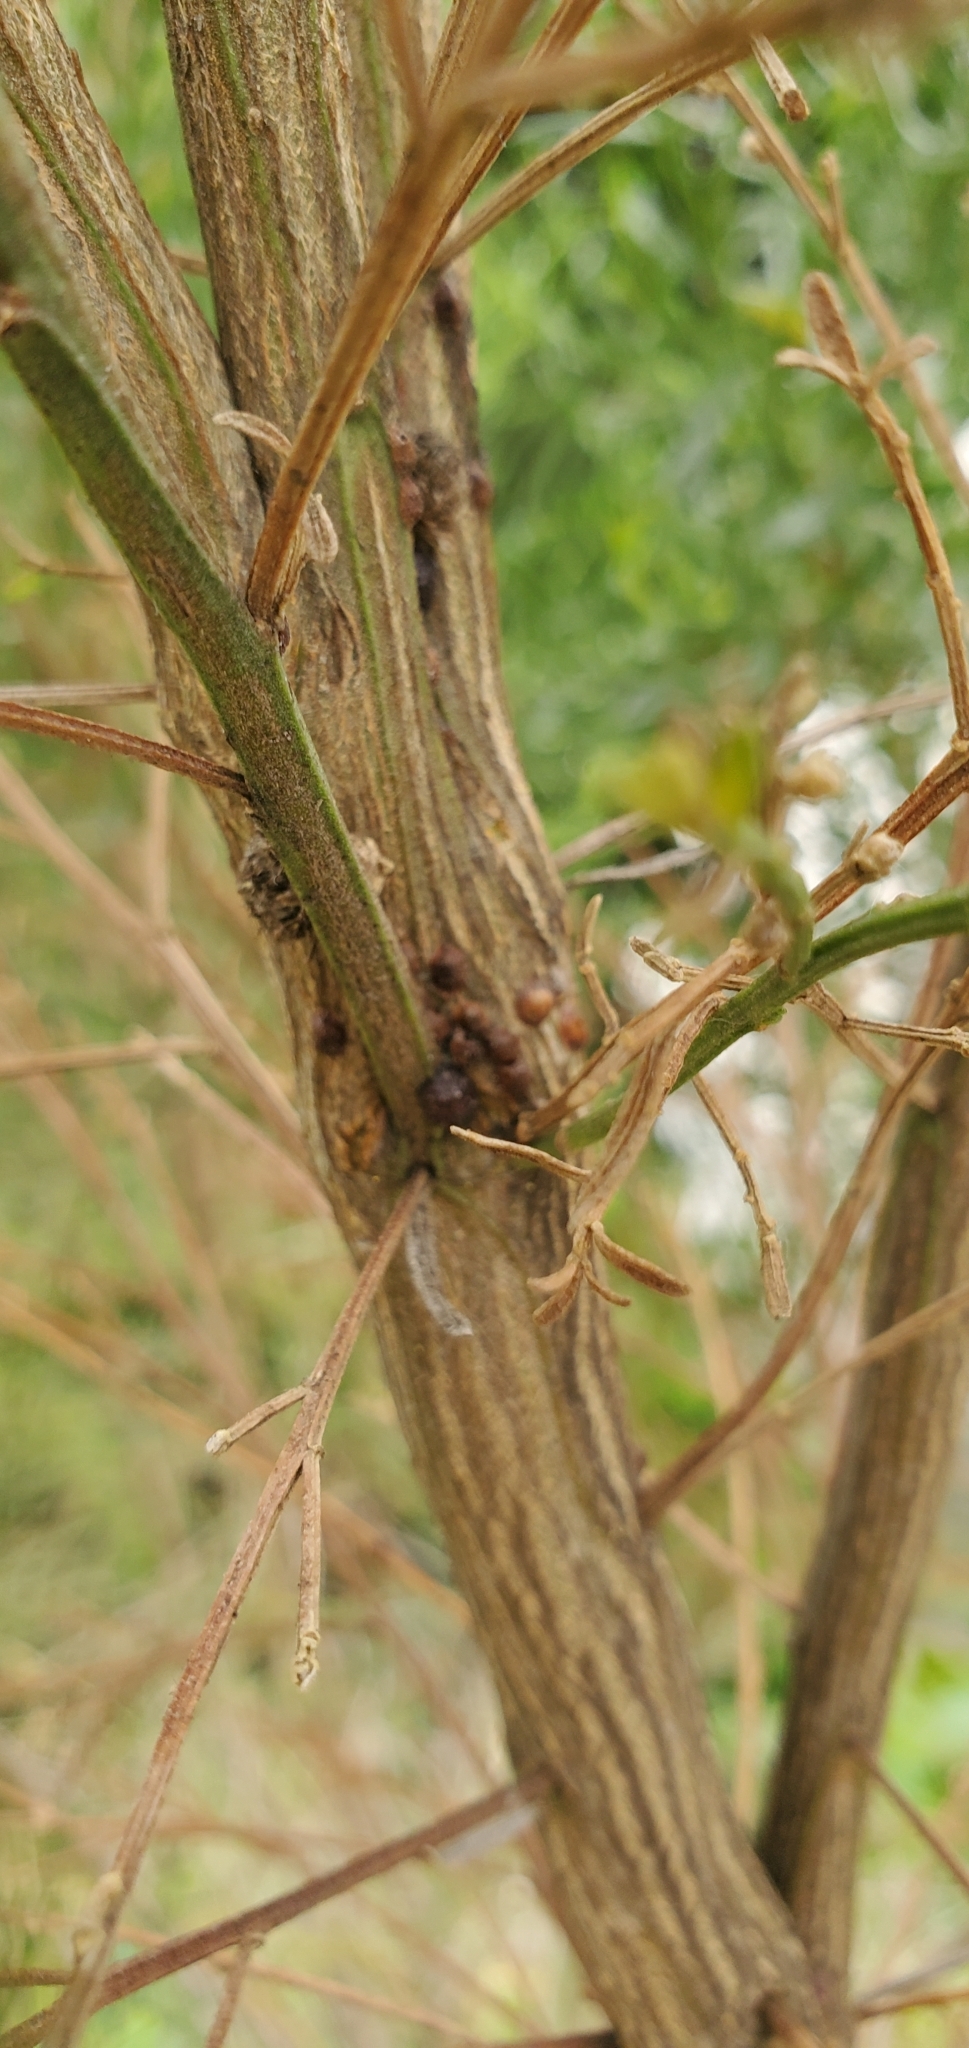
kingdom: Plantae
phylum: Tracheophyta
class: Magnoliopsida
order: Asterales
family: Asteraceae
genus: Baccharis
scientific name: Baccharis sarothroides
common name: Desert-broom
